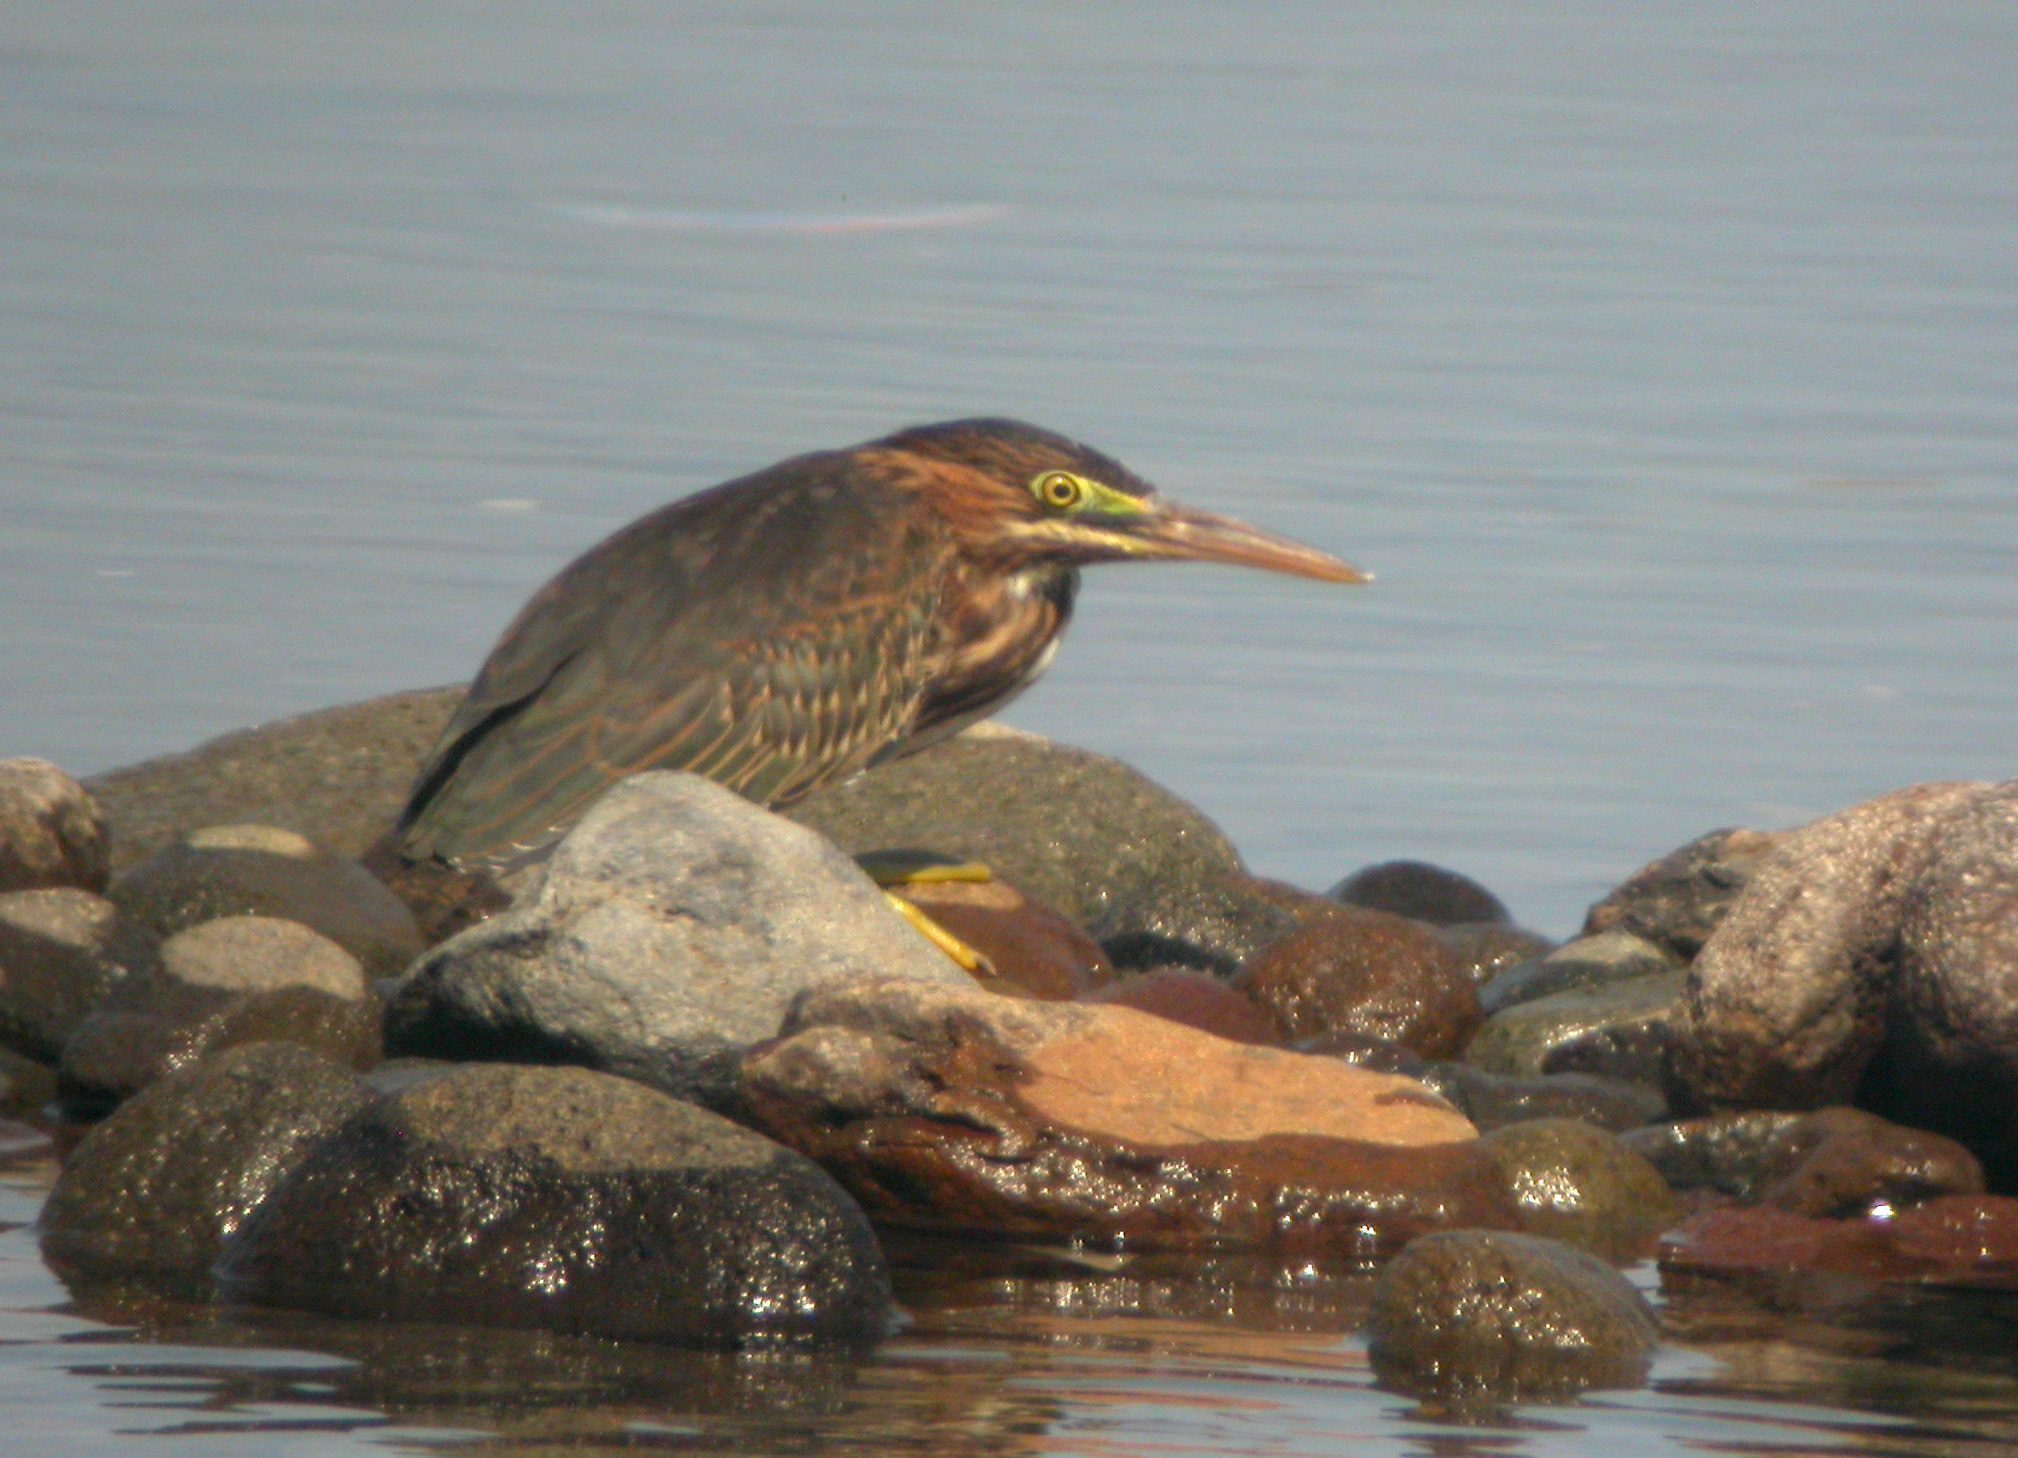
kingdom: Animalia
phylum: Chordata
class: Aves
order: Pelecaniformes
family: Ardeidae
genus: Butorides
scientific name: Butorides virescens
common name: Green heron
